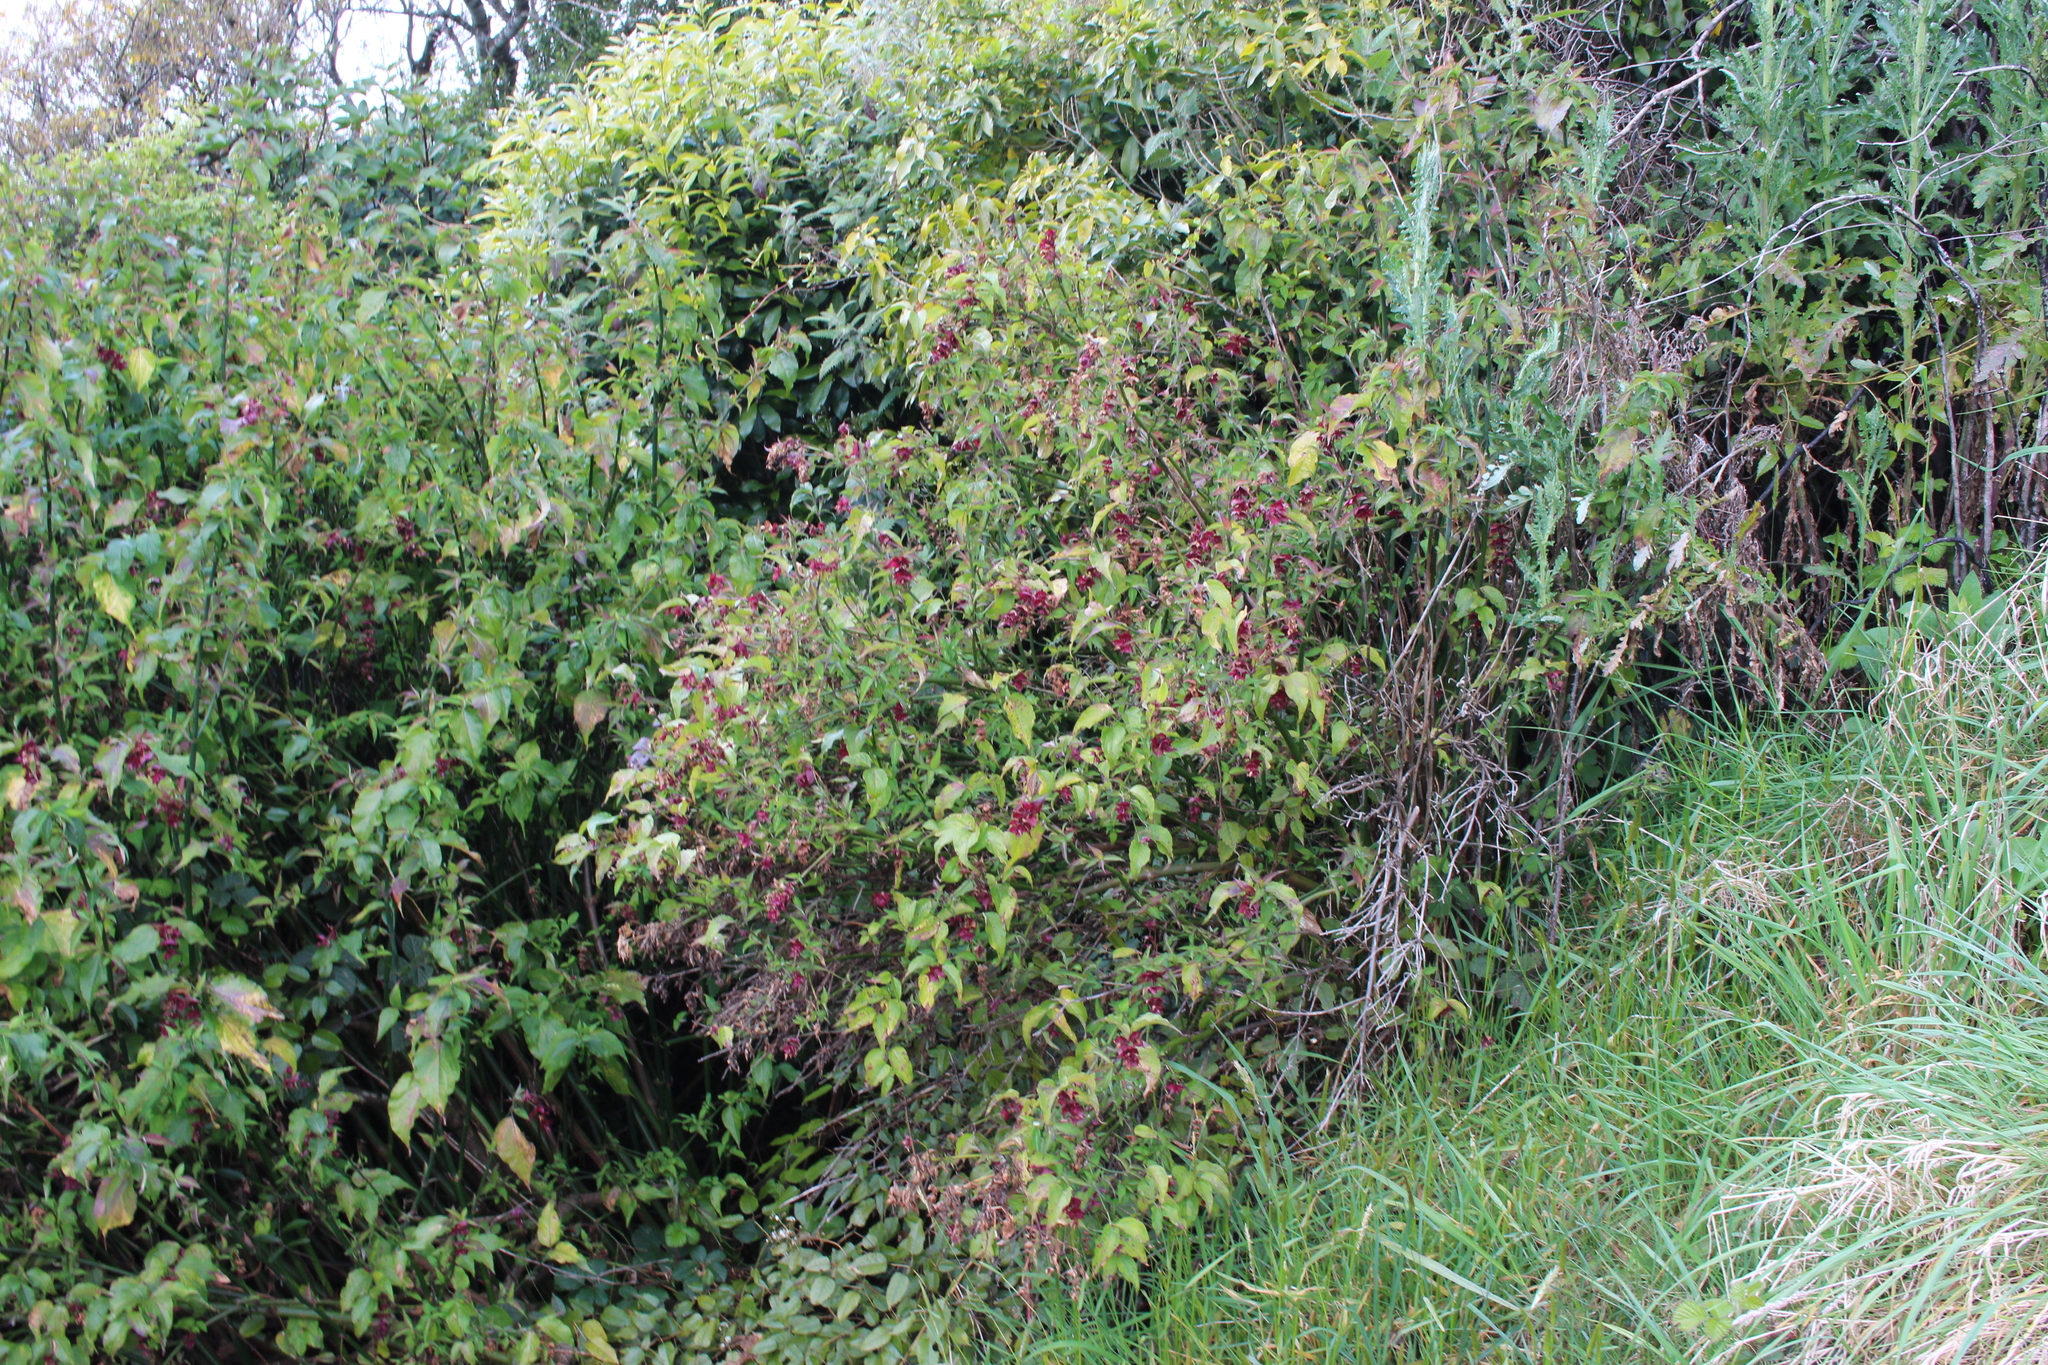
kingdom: Plantae
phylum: Tracheophyta
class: Magnoliopsida
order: Dipsacales
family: Caprifoliaceae
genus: Leycesteria
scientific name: Leycesteria formosa
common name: Himalayan honeysuckle
